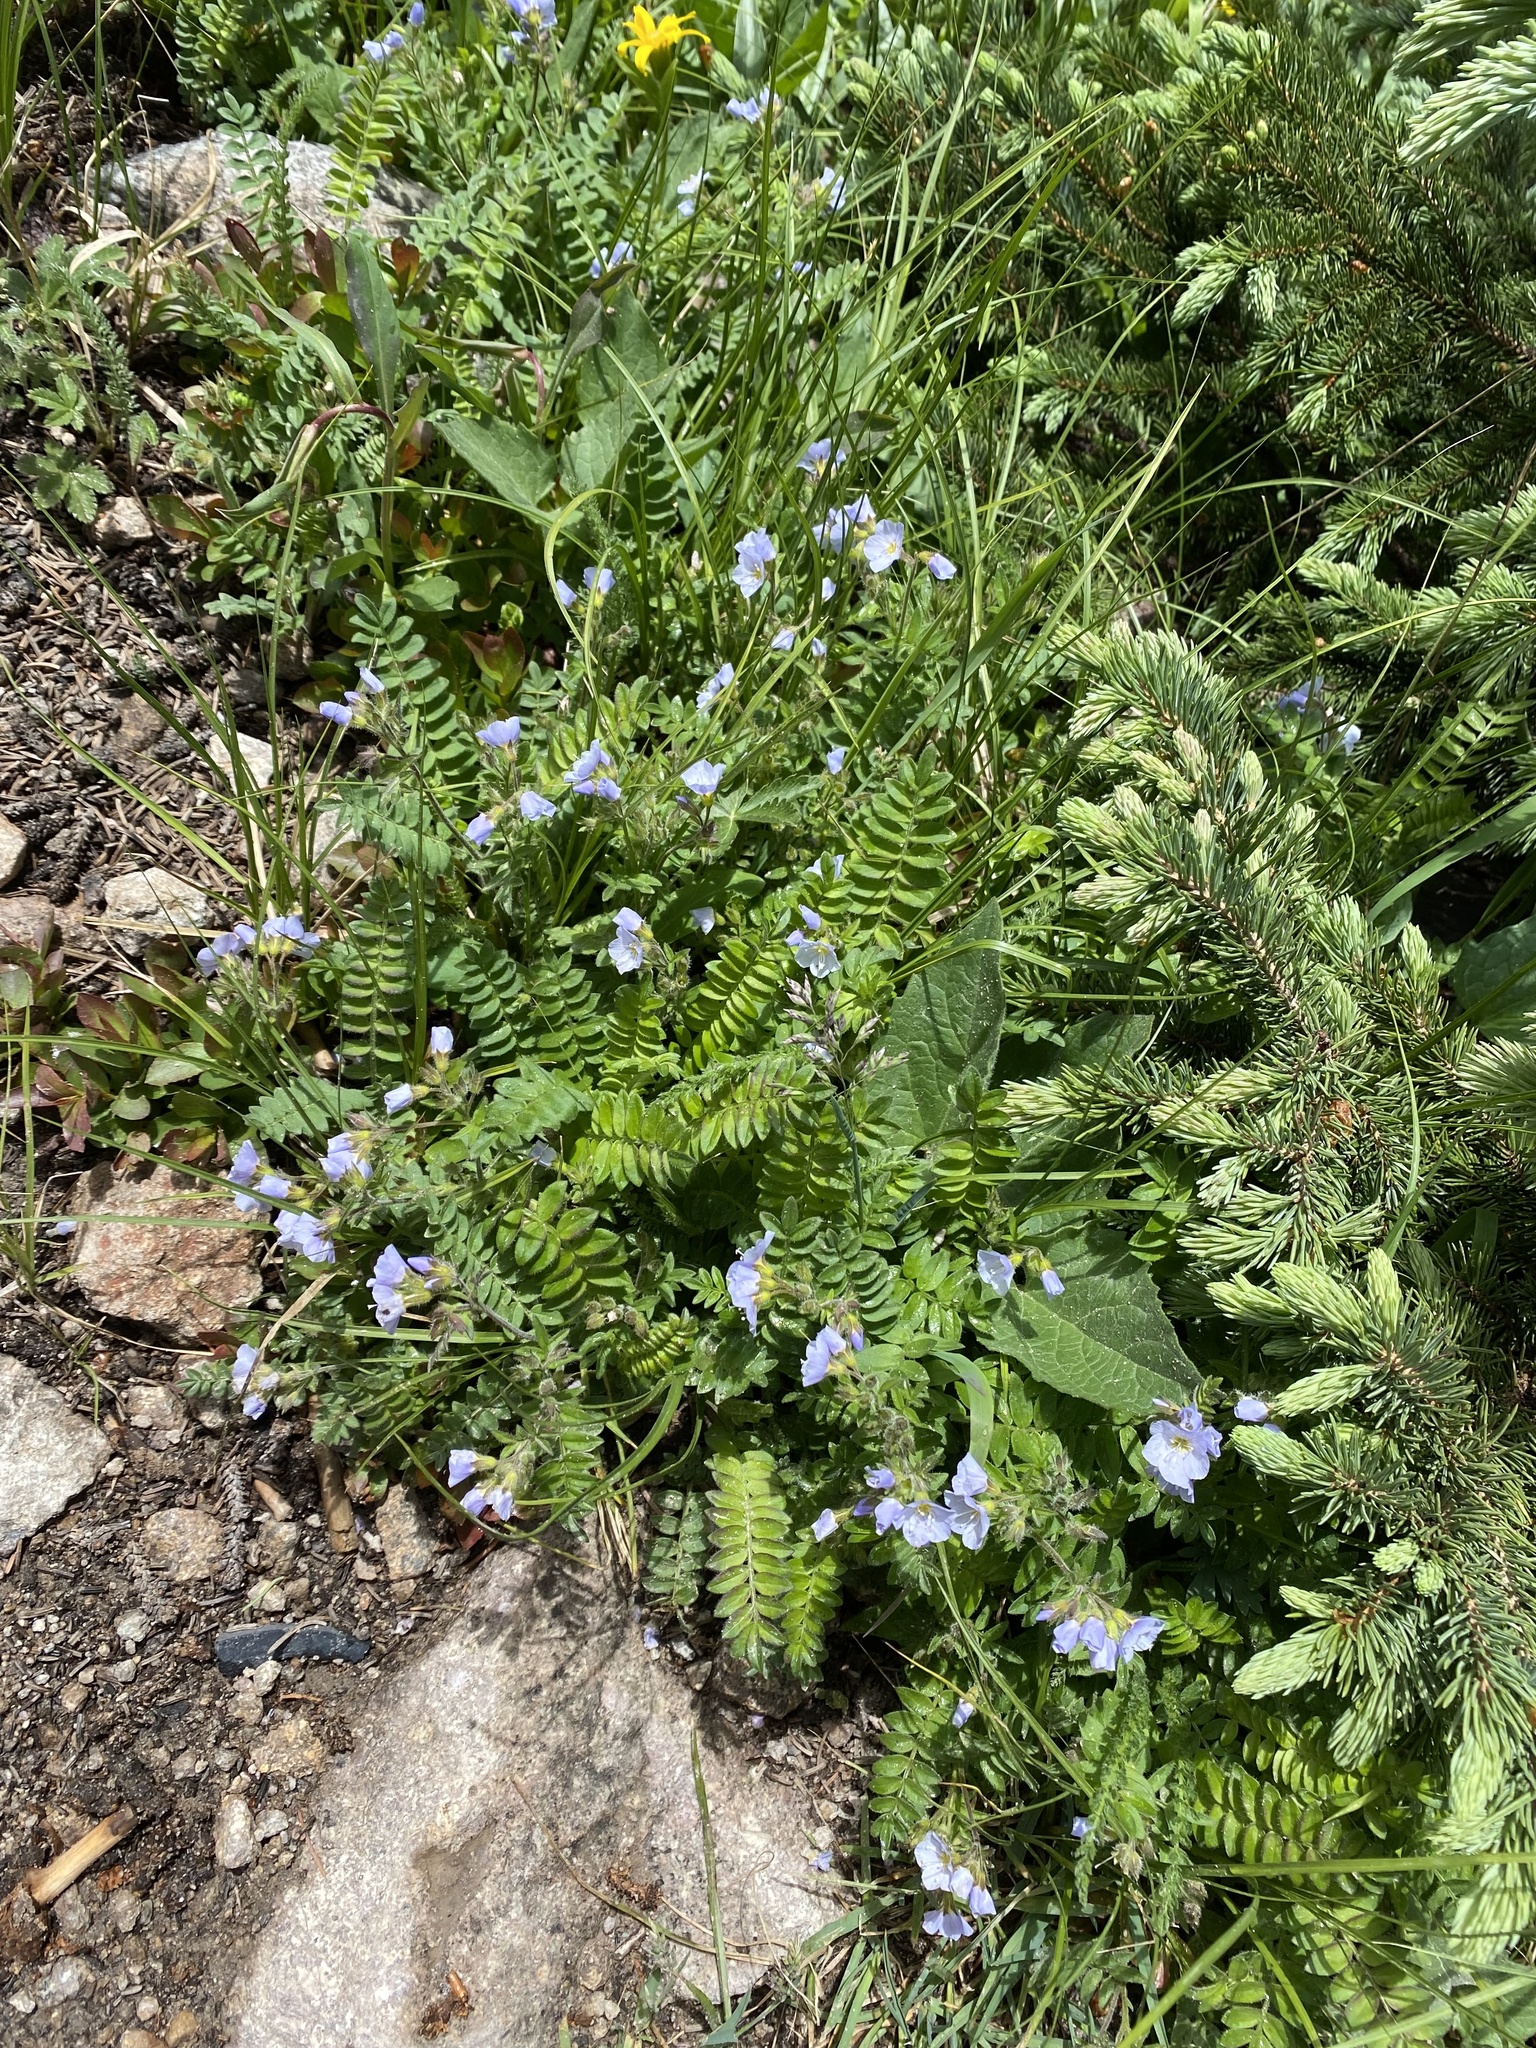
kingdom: Plantae
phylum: Tracheophyta
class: Magnoliopsida
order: Ericales
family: Polemoniaceae
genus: Polemonium
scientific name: Polemonium pulcherrimum
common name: Short jacob's-ladder
